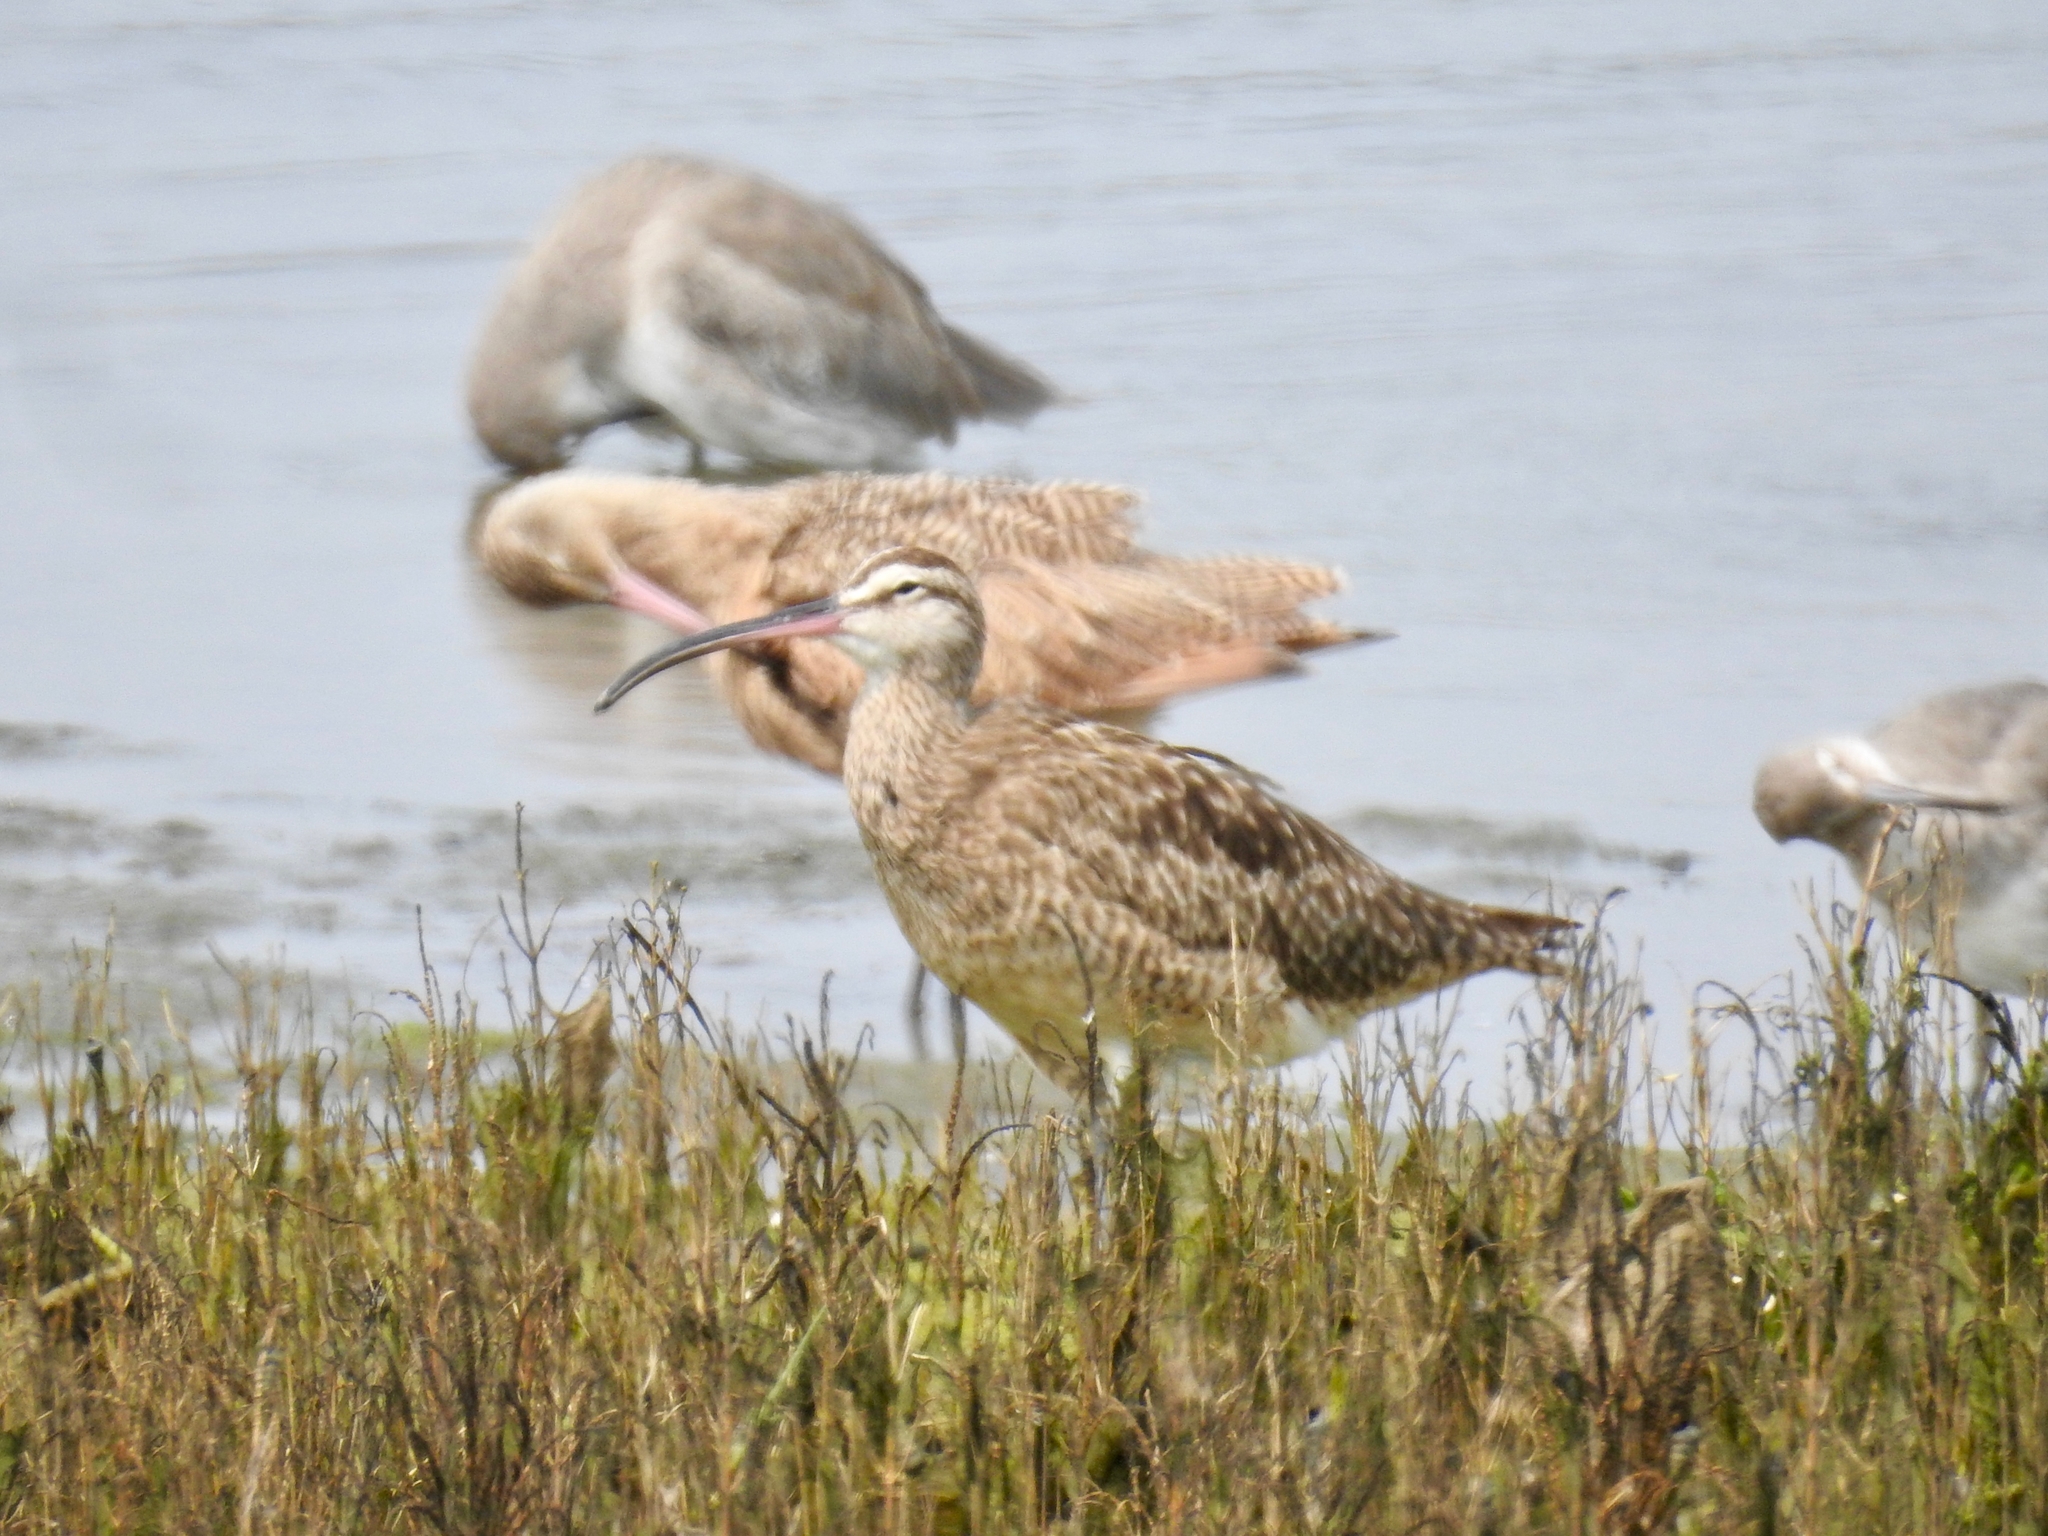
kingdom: Animalia
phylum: Chordata
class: Aves
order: Charadriiformes
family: Scolopacidae
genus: Numenius
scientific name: Numenius phaeopus
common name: Whimbrel
